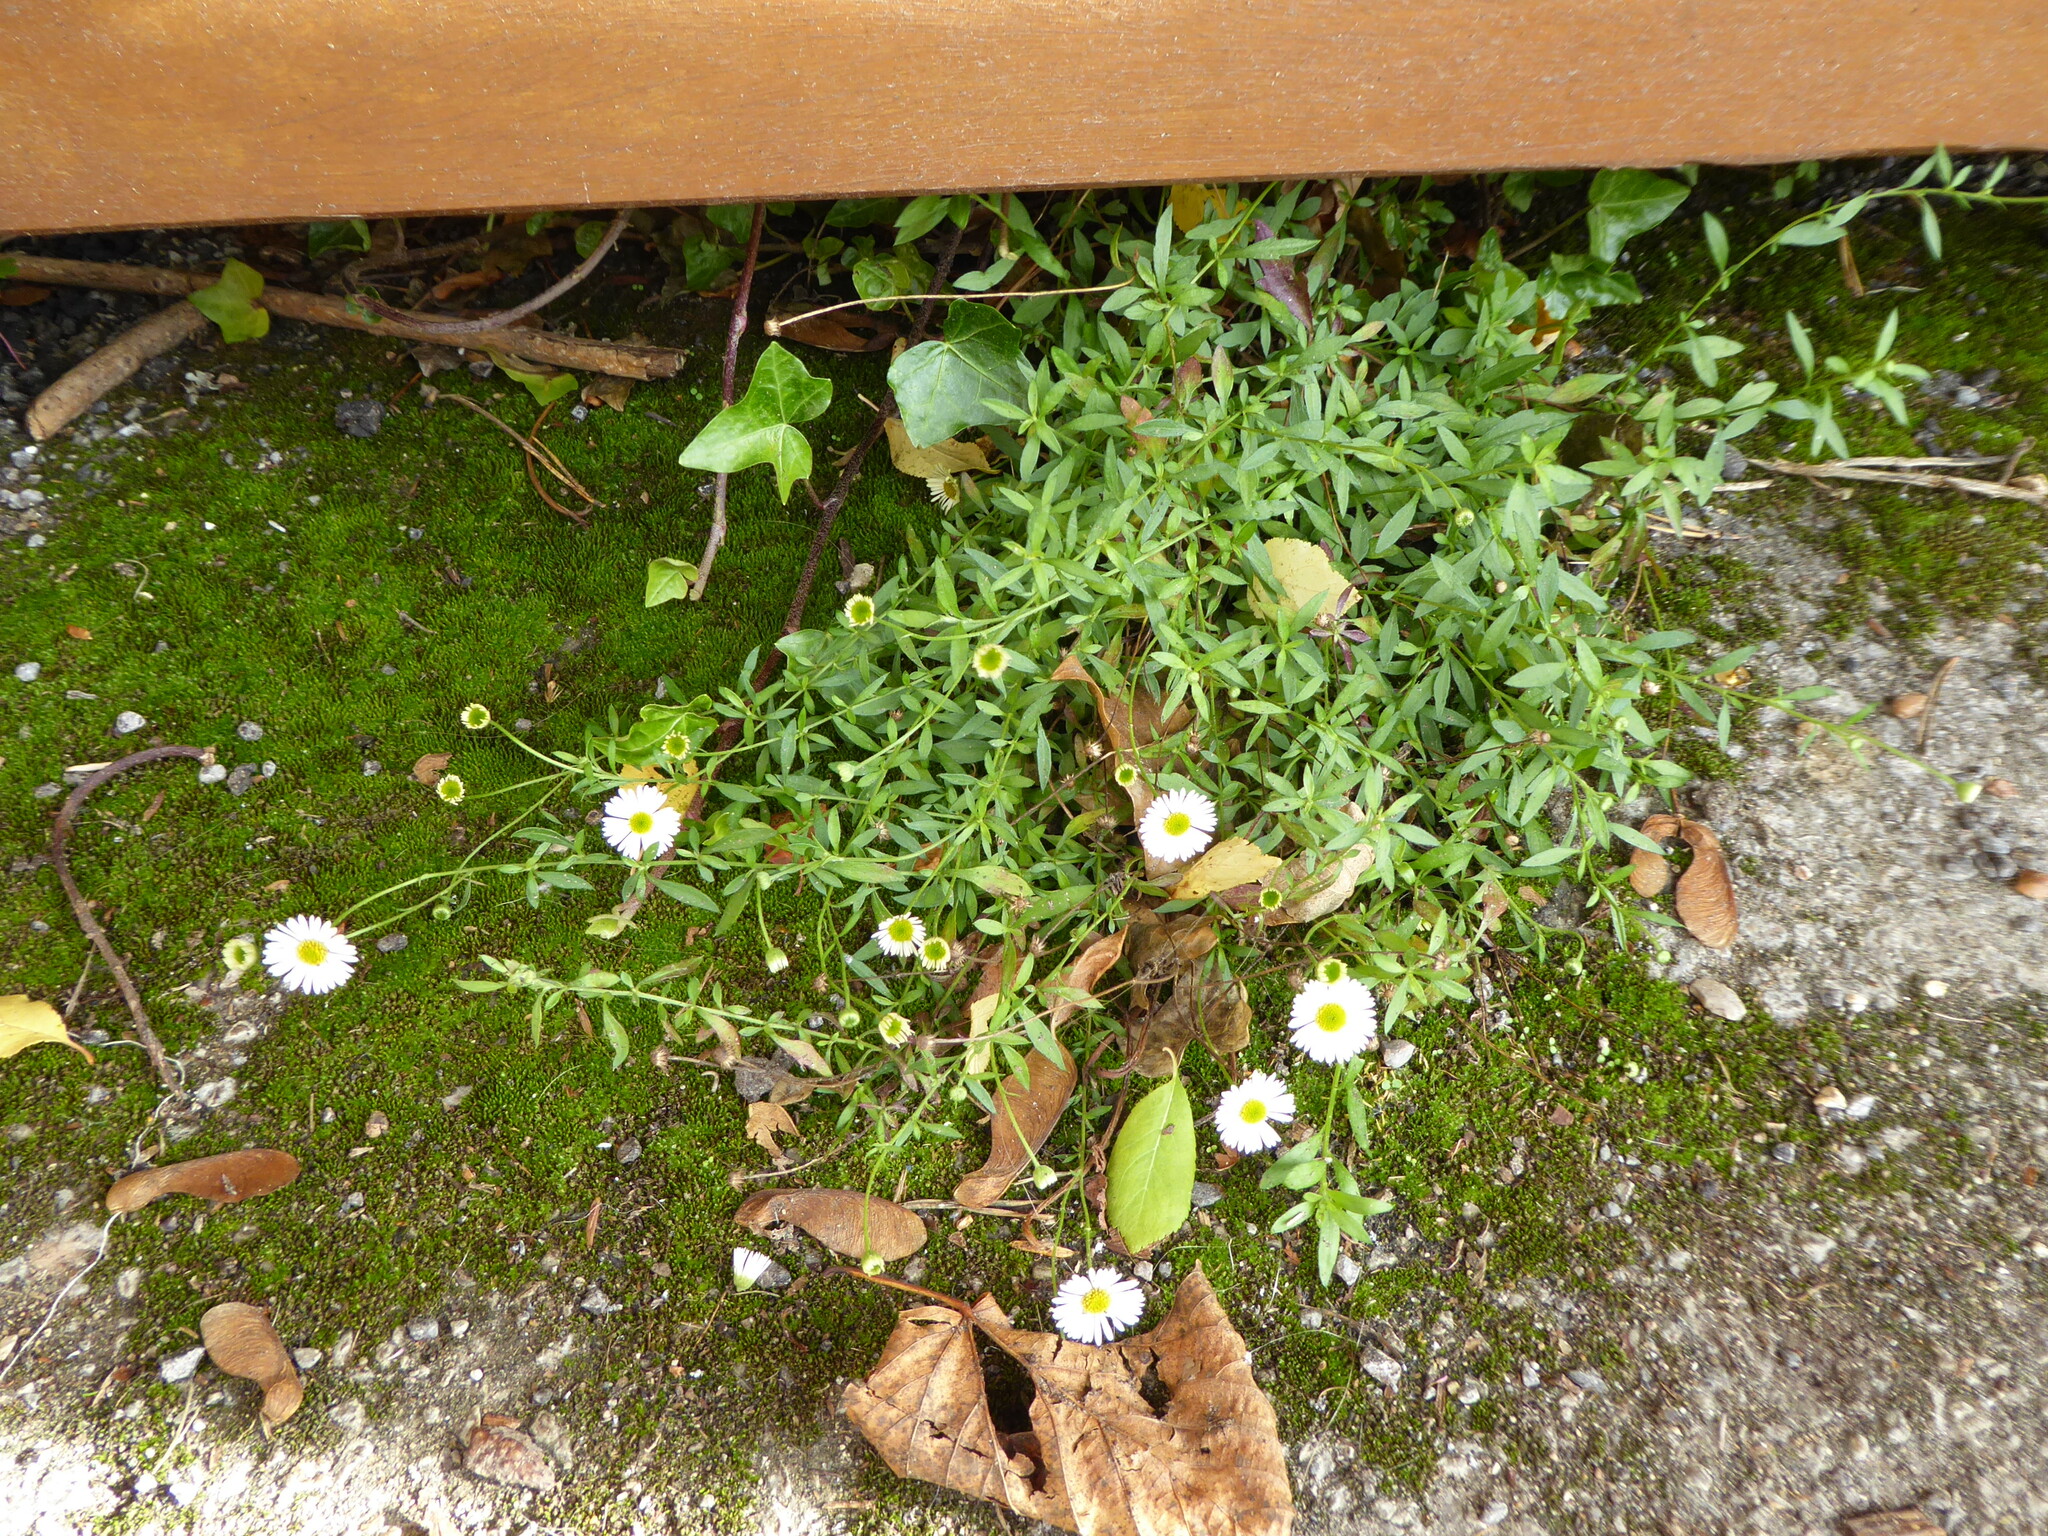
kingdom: Plantae
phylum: Tracheophyta
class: Magnoliopsida
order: Asterales
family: Asteraceae
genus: Erigeron
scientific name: Erigeron karvinskianus
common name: Mexican fleabane
